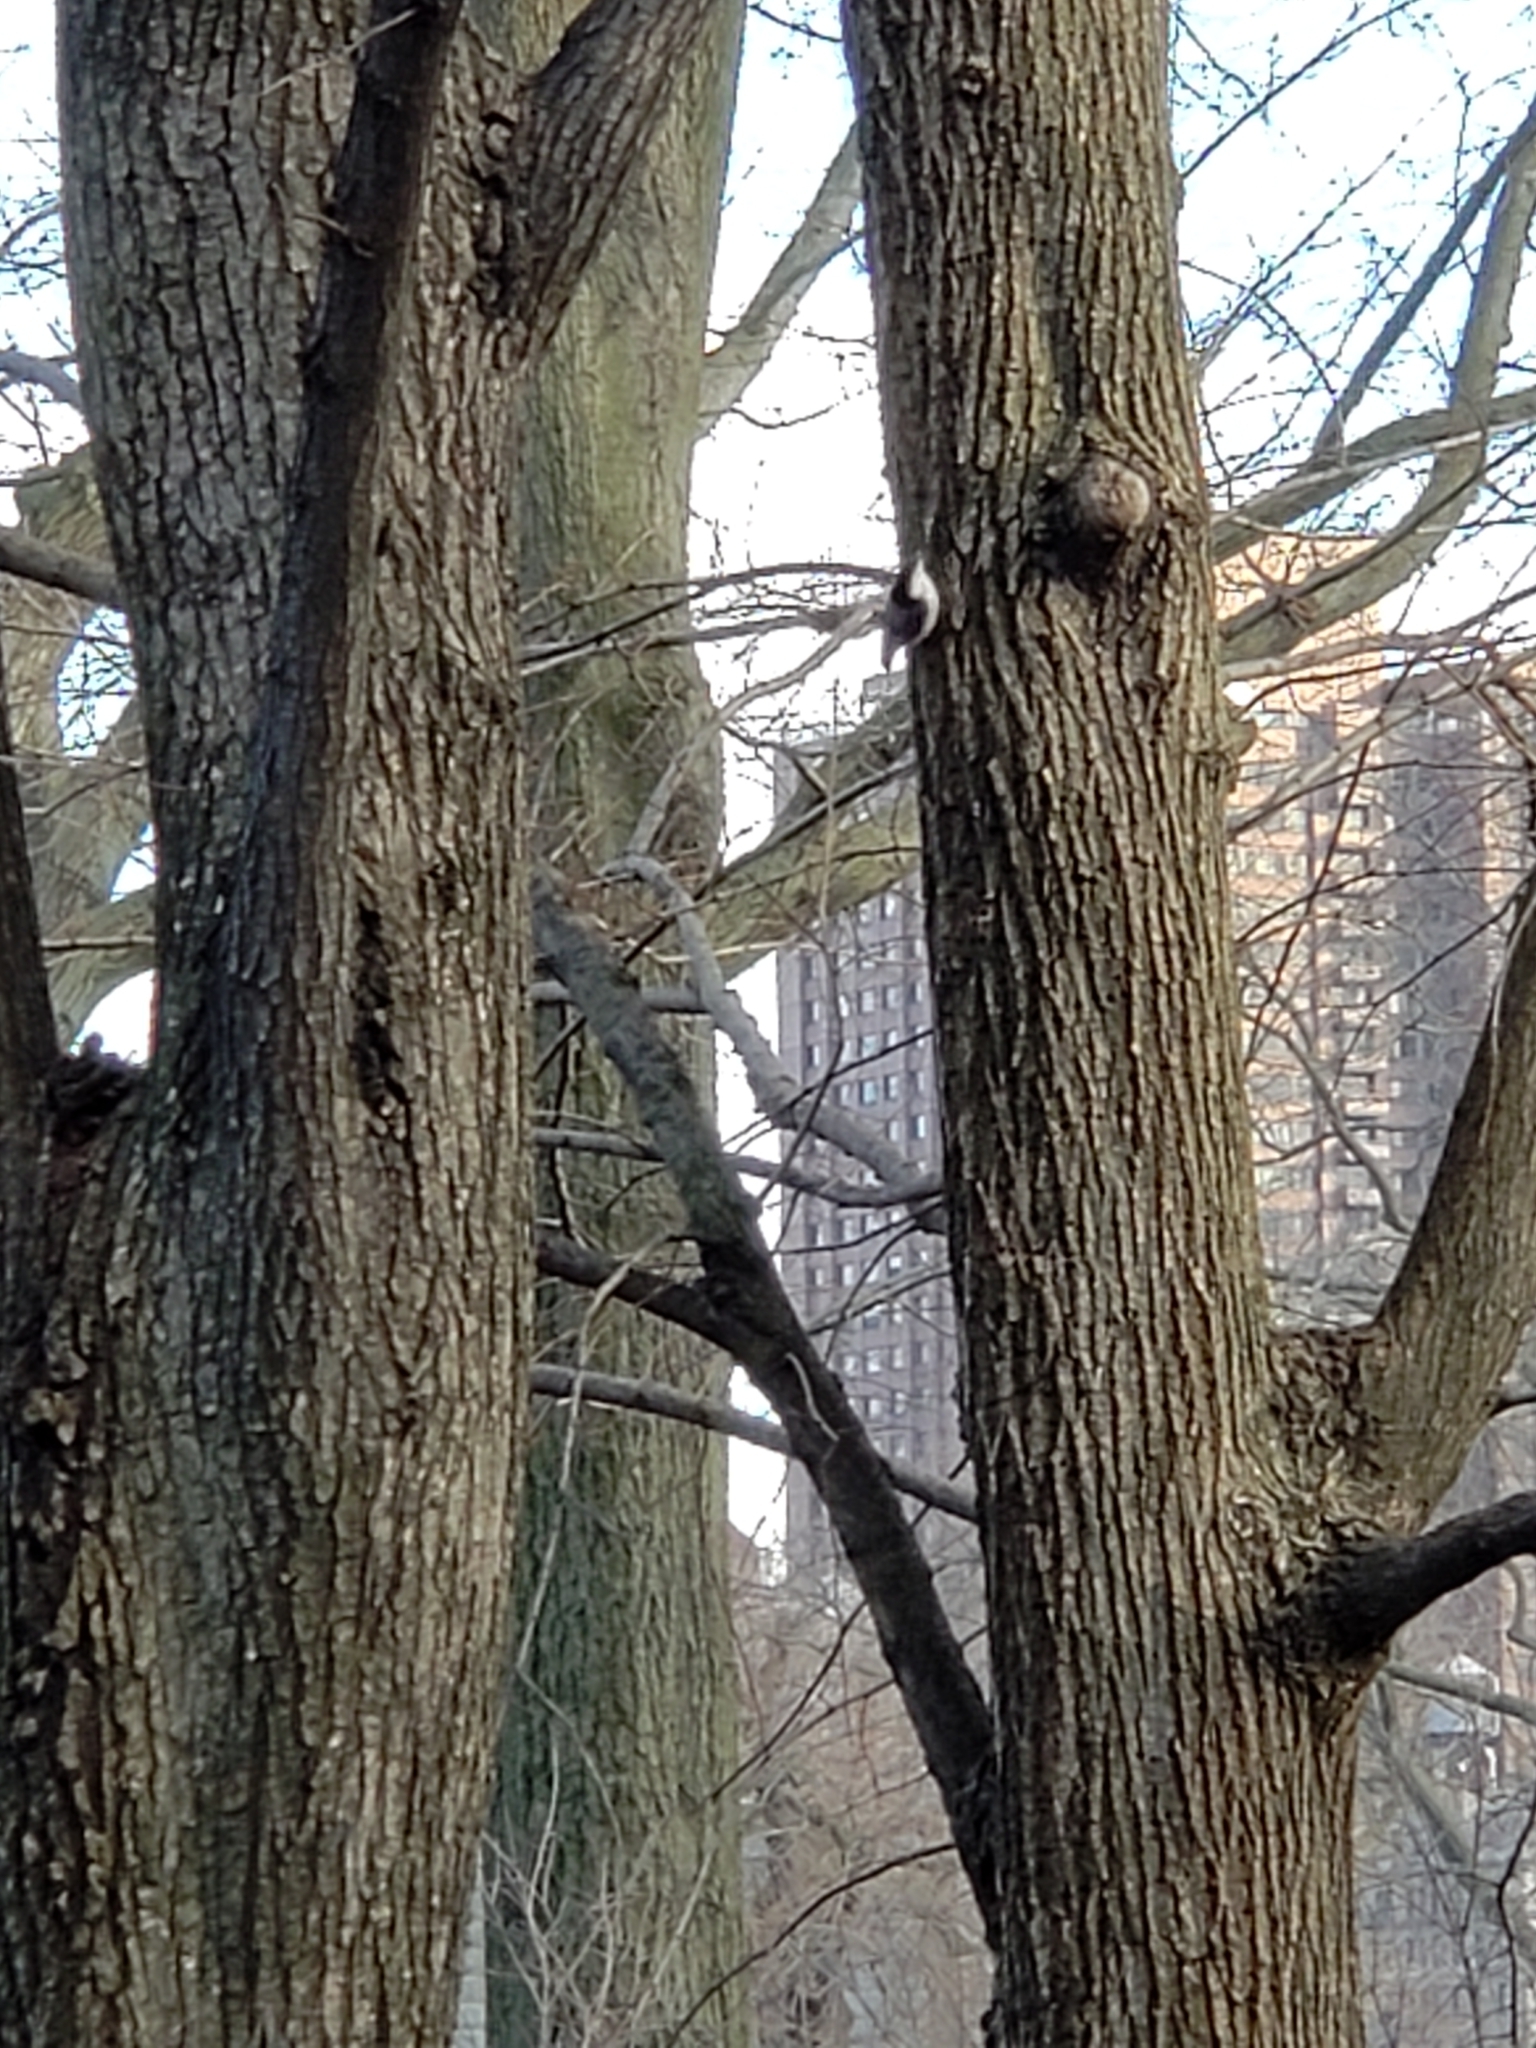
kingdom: Animalia
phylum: Chordata
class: Aves
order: Passeriformes
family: Sittidae
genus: Sitta
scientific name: Sitta carolinensis
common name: White-breasted nuthatch
